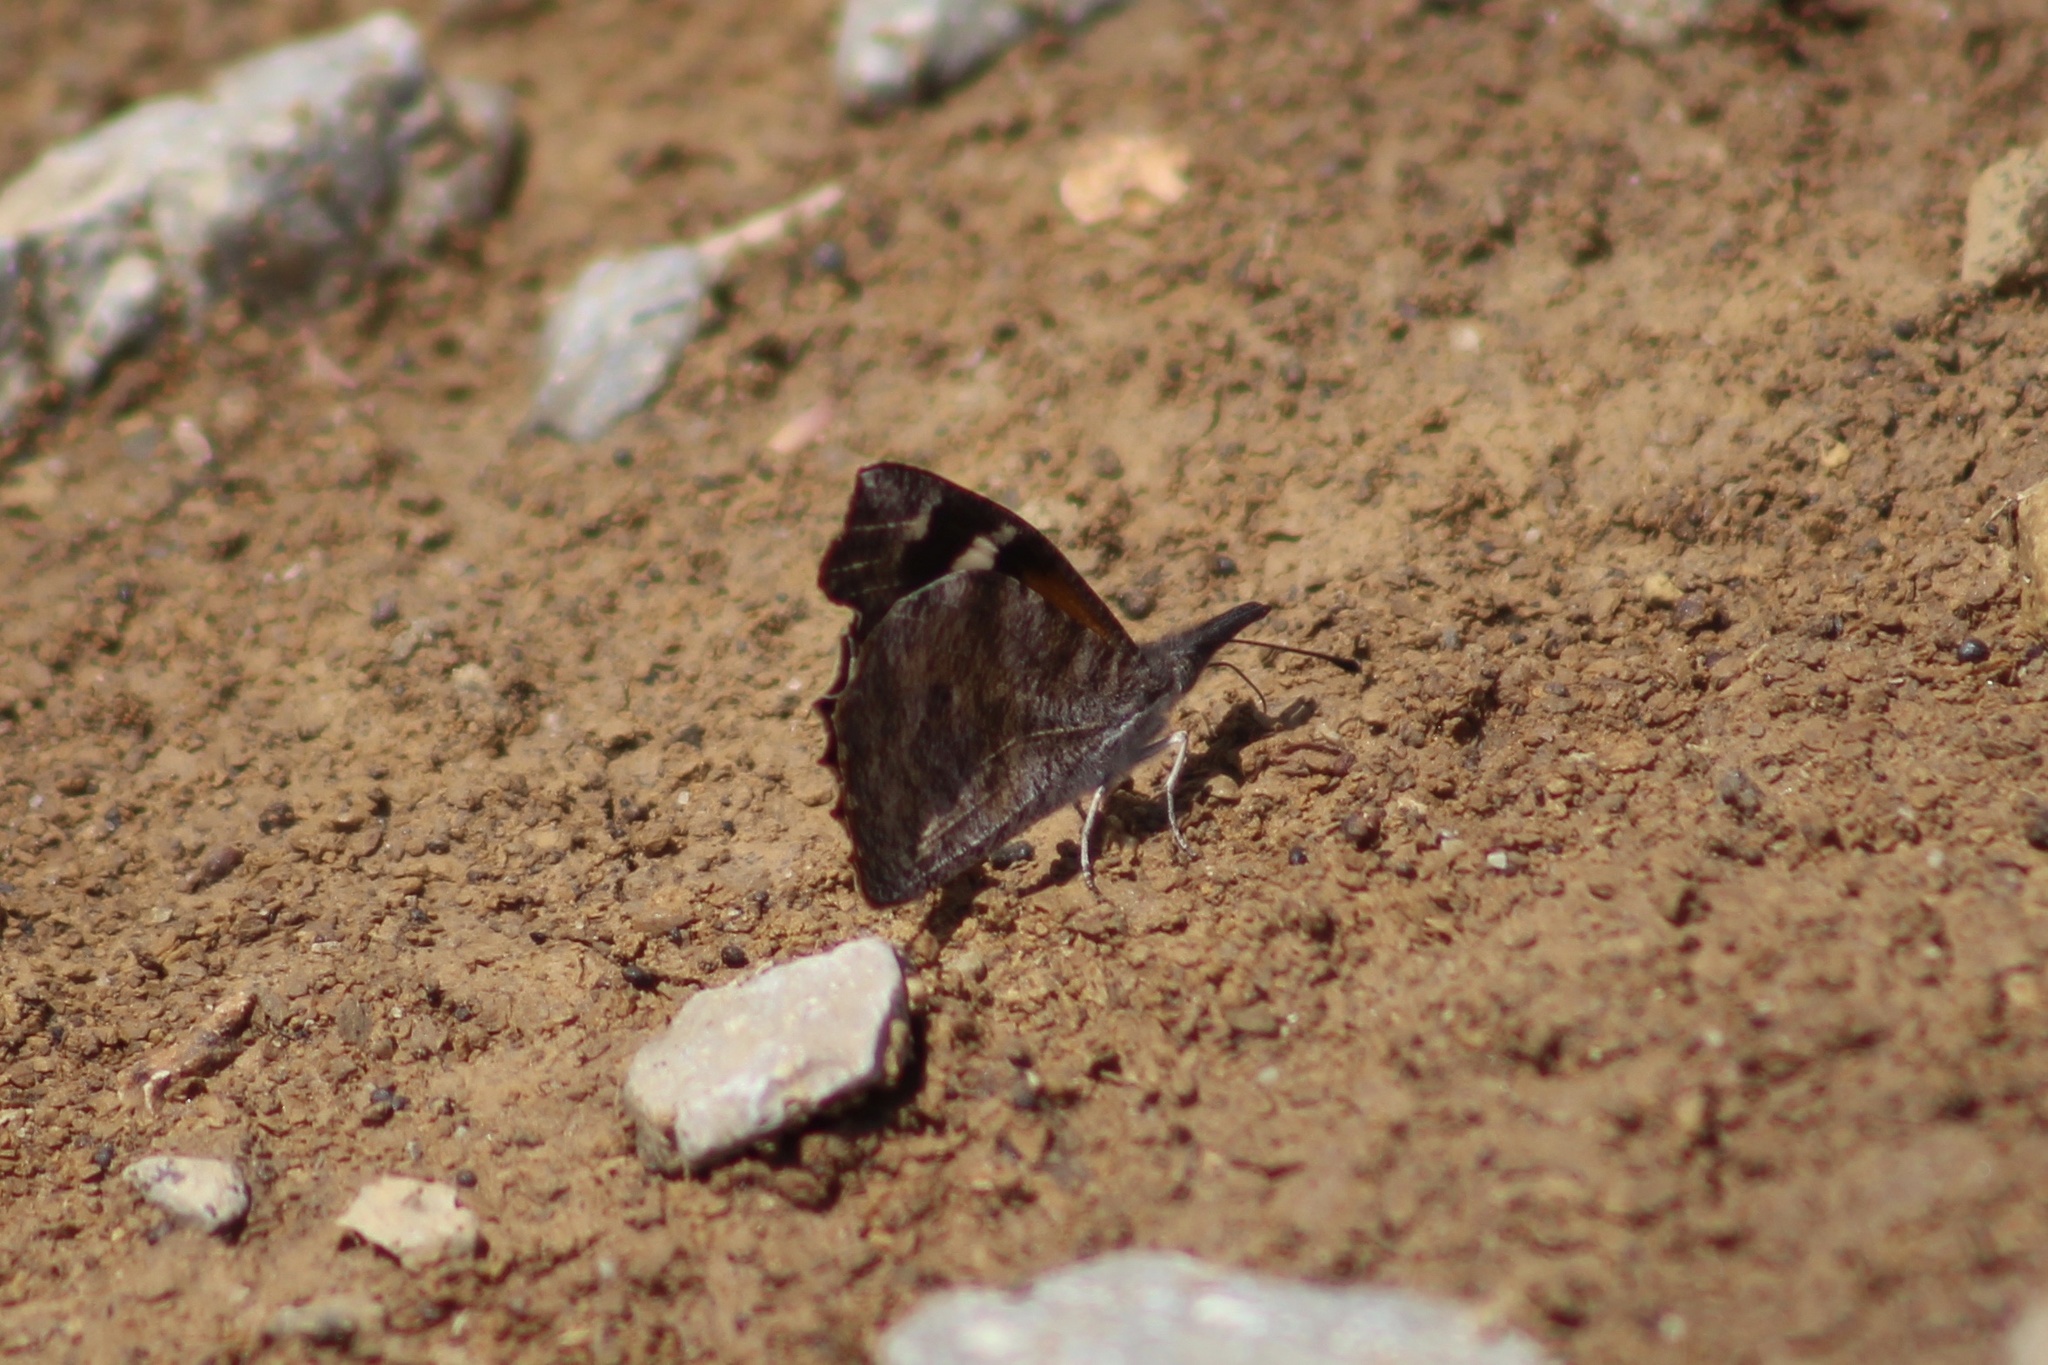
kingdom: Animalia
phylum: Arthropoda
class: Insecta
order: Lepidoptera
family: Nymphalidae
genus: Libytheana
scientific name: Libytheana carinenta
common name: American snout
